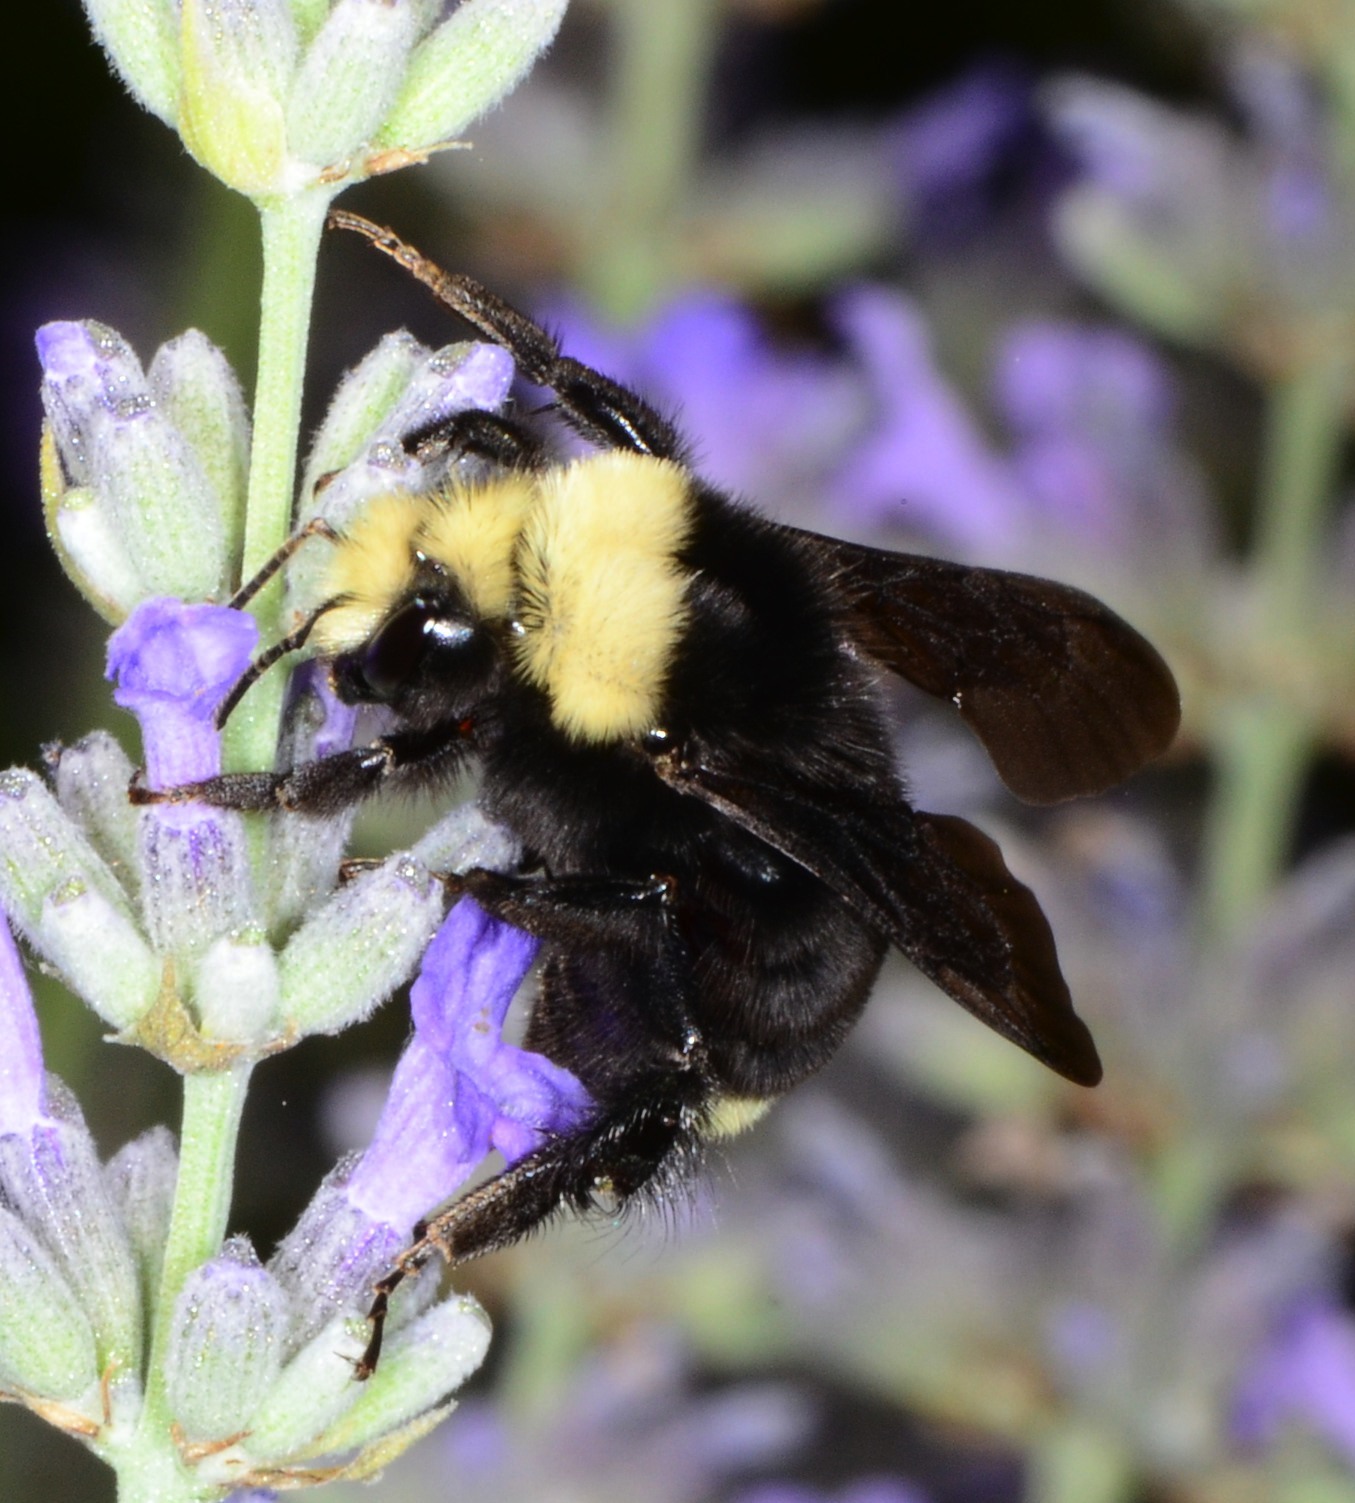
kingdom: Animalia
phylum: Arthropoda
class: Insecta
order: Hymenoptera
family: Apidae
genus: Bombus
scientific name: Bombus vosnesenskii
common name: Vosnesensky bumble bee
